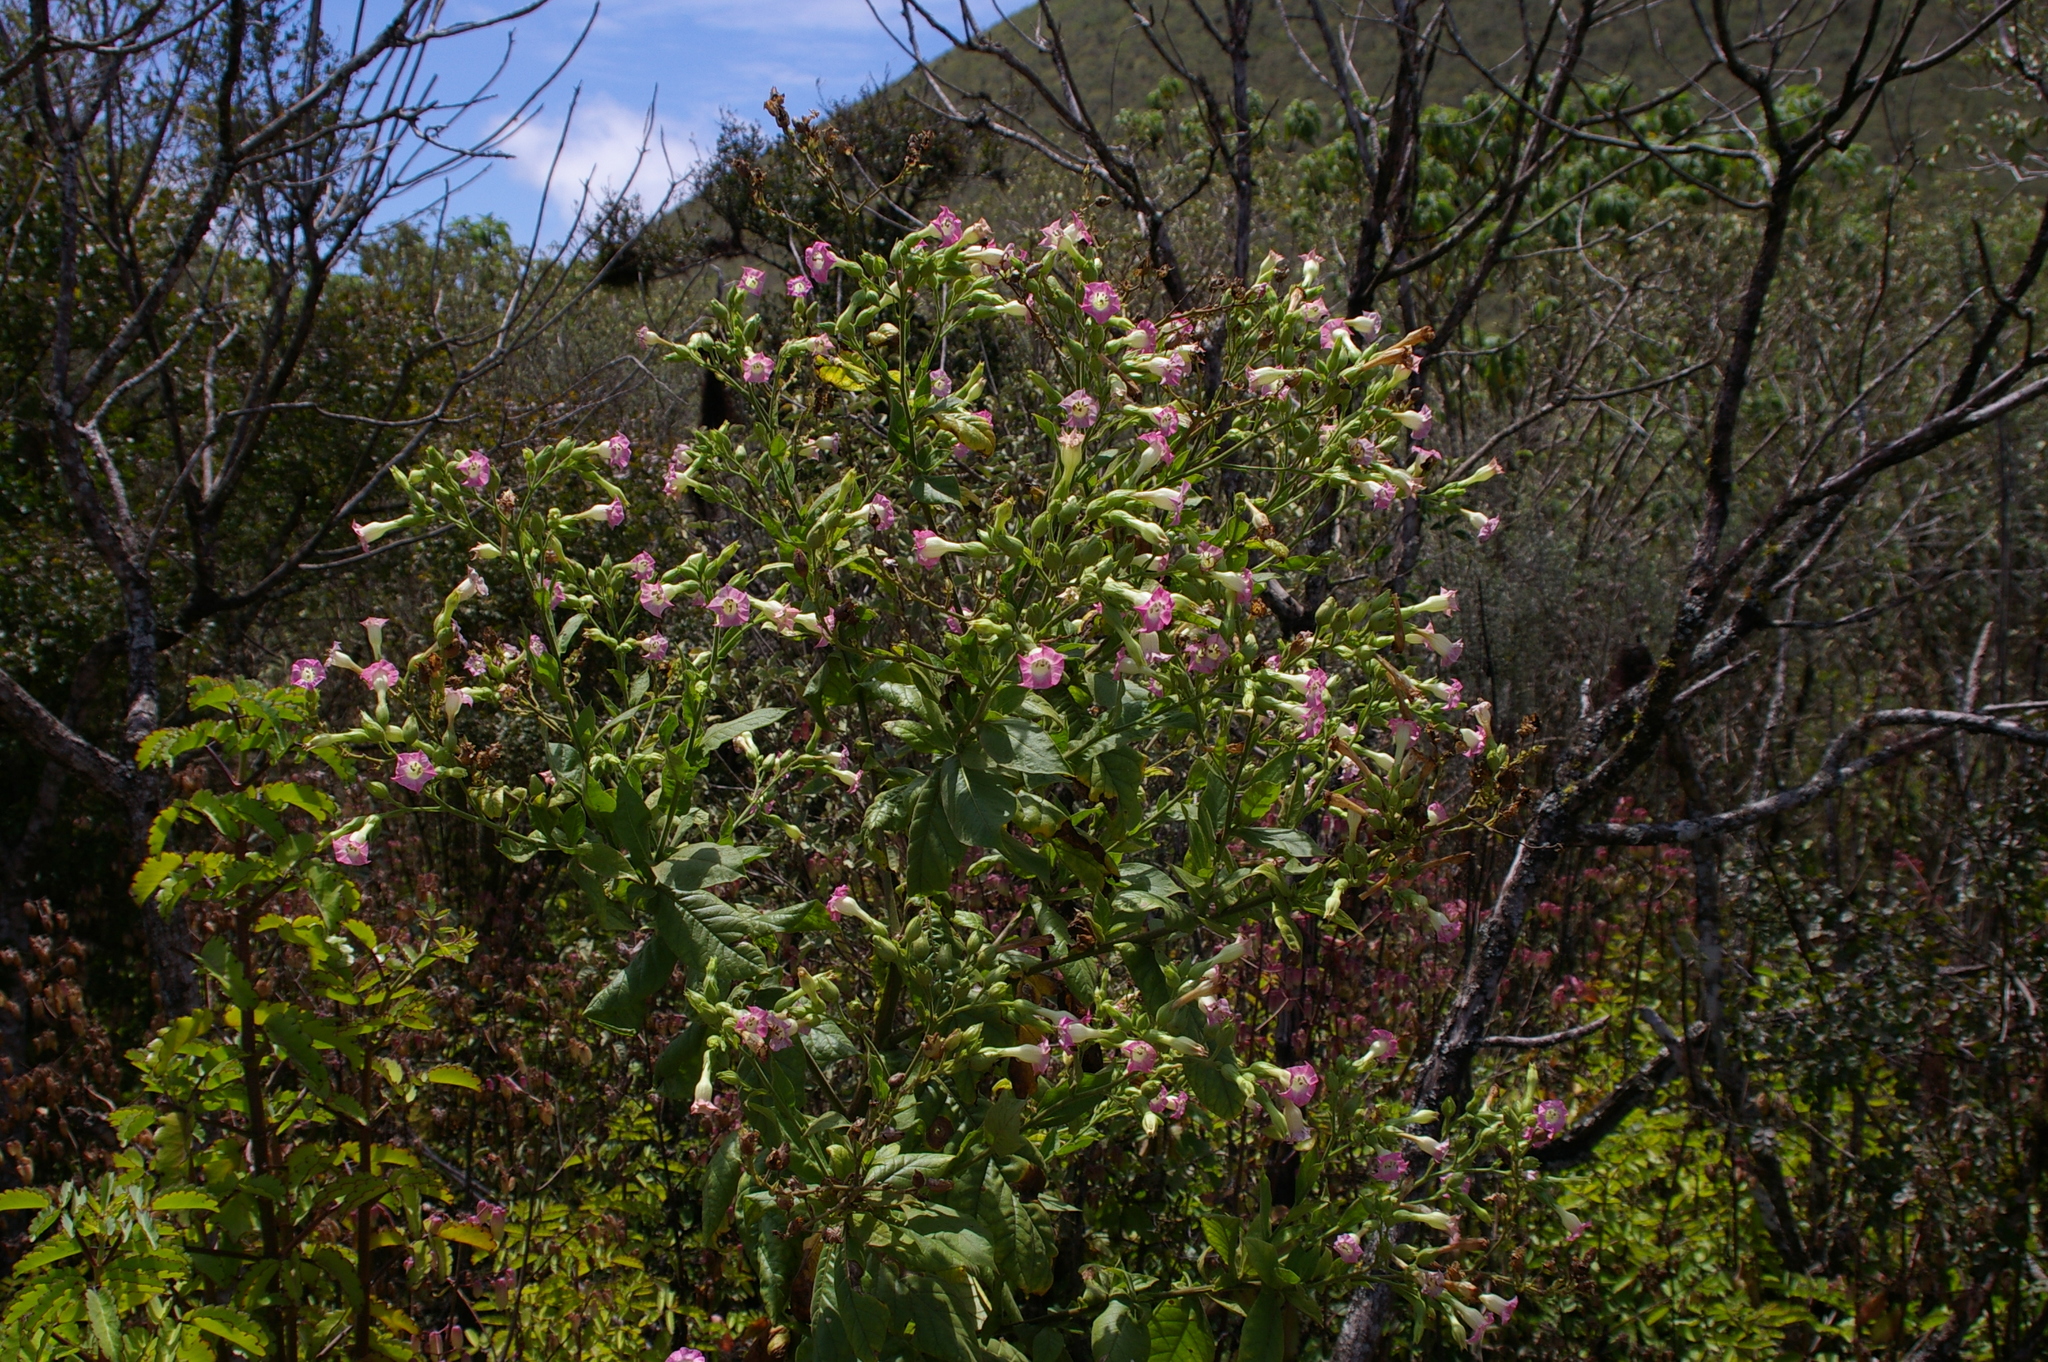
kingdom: Plantae
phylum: Tracheophyta
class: Magnoliopsida
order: Solanales
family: Solanaceae
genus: Nicotiana
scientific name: Nicotiana tabacum
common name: Tobacco
